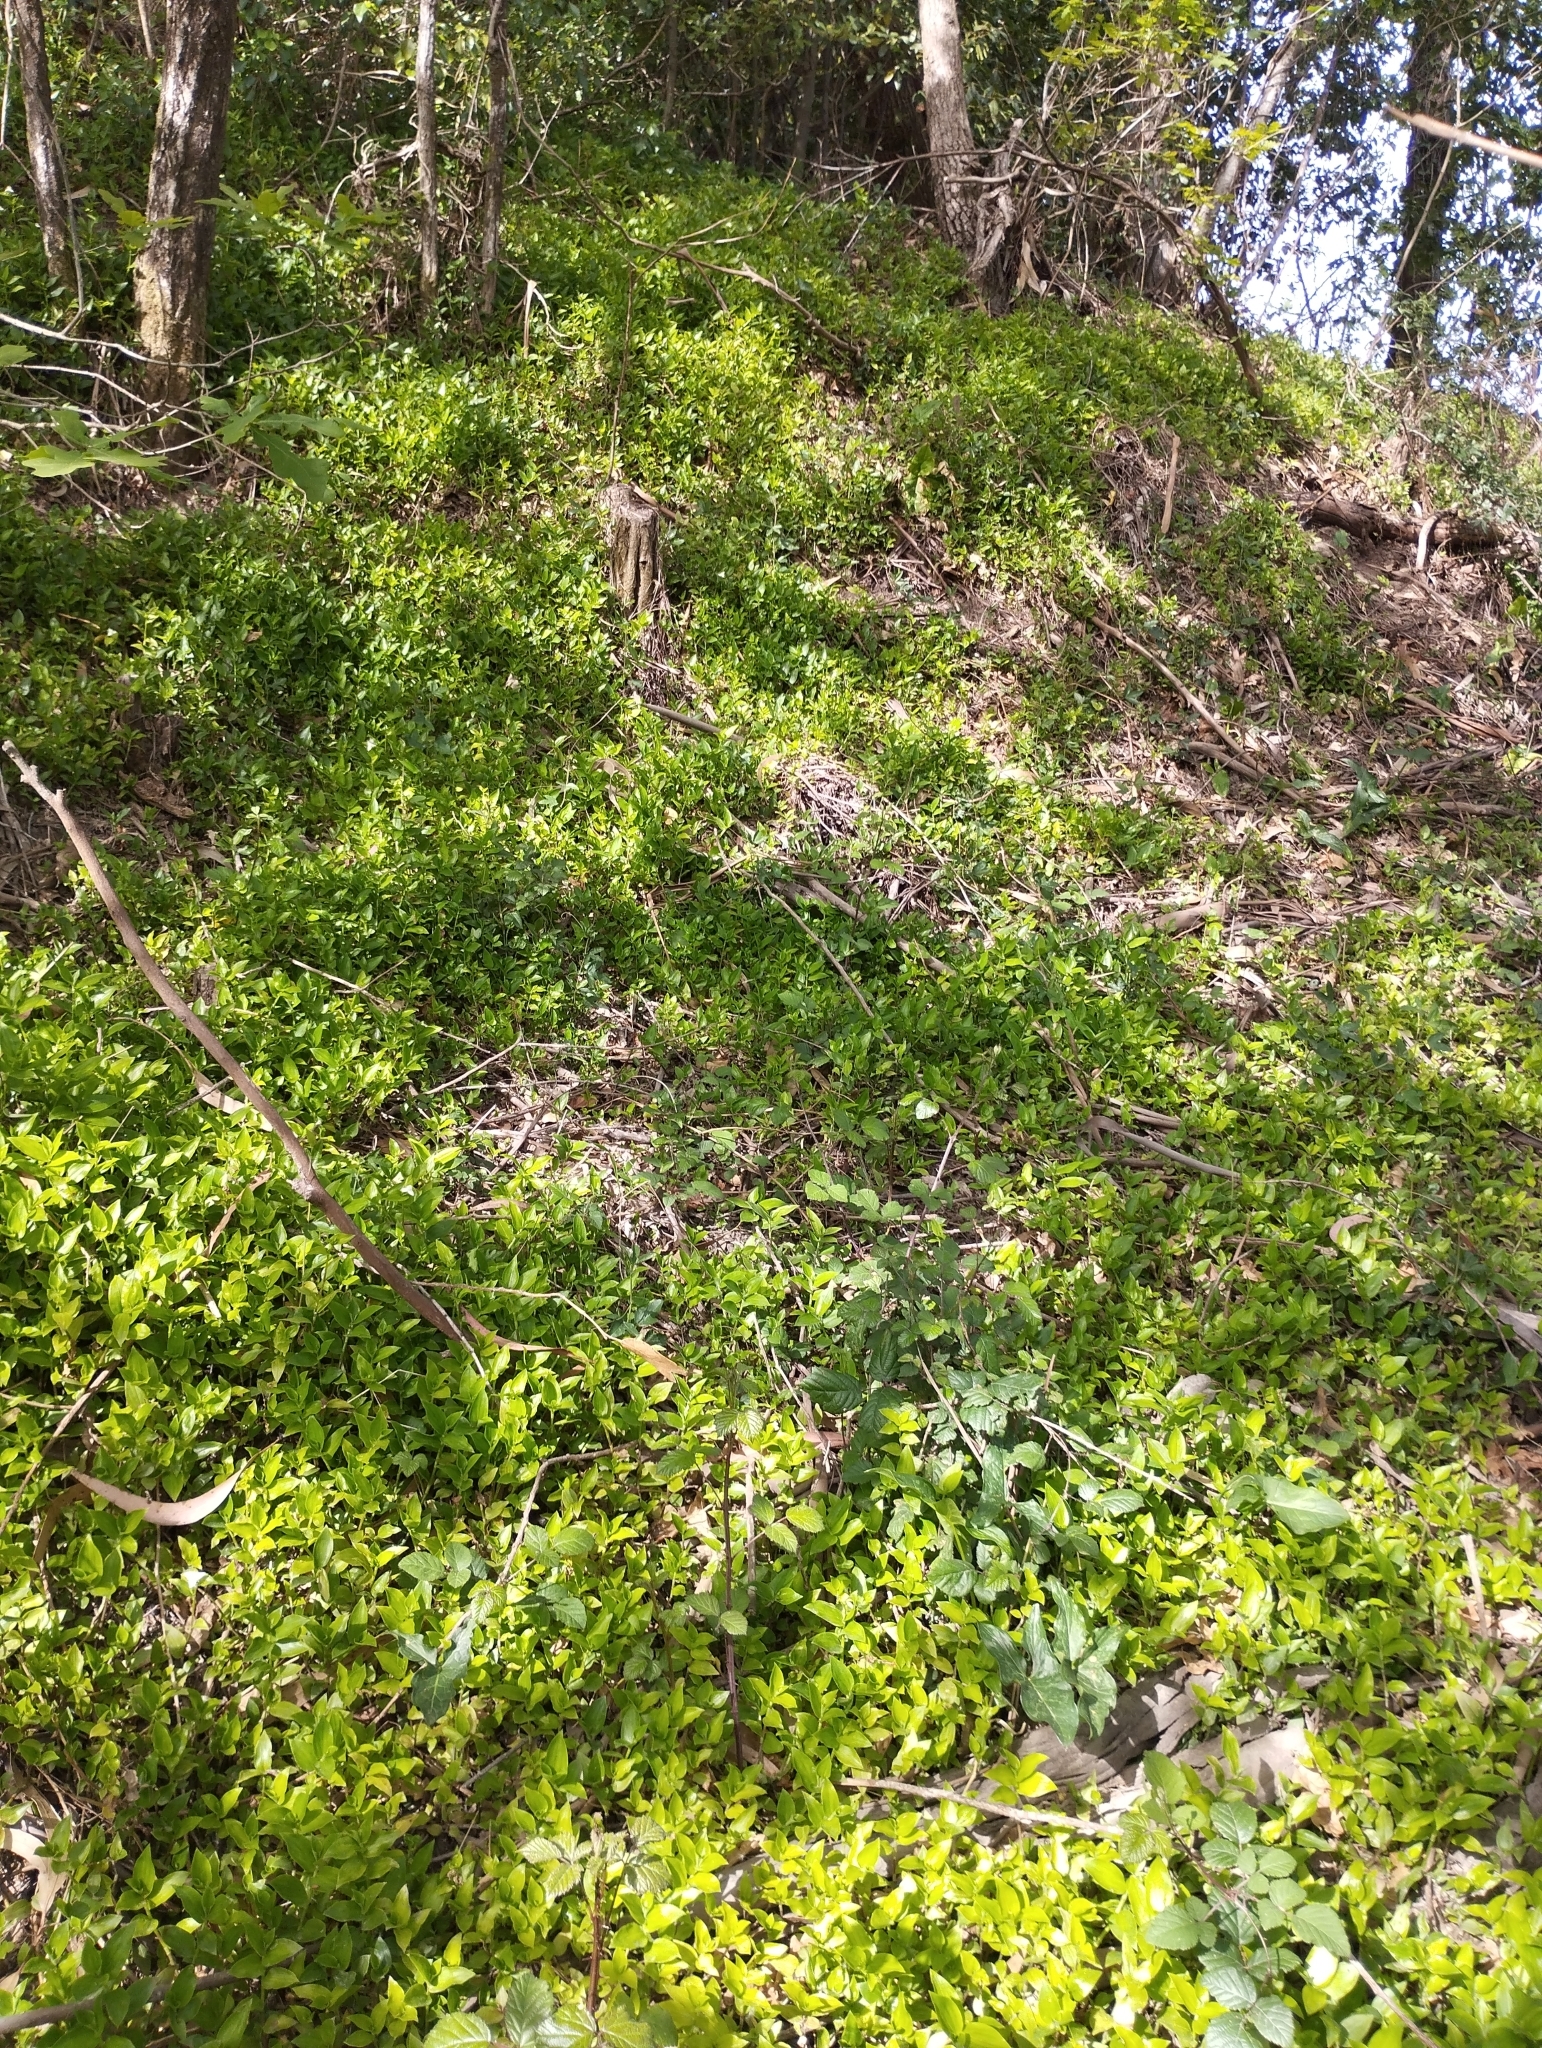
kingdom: Plantae
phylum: Tracheophyta
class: Liliopsida
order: Commelinales
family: Commelinaceae
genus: Tradescantia
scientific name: Tradescantia fluminensis
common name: Wandering-jew
